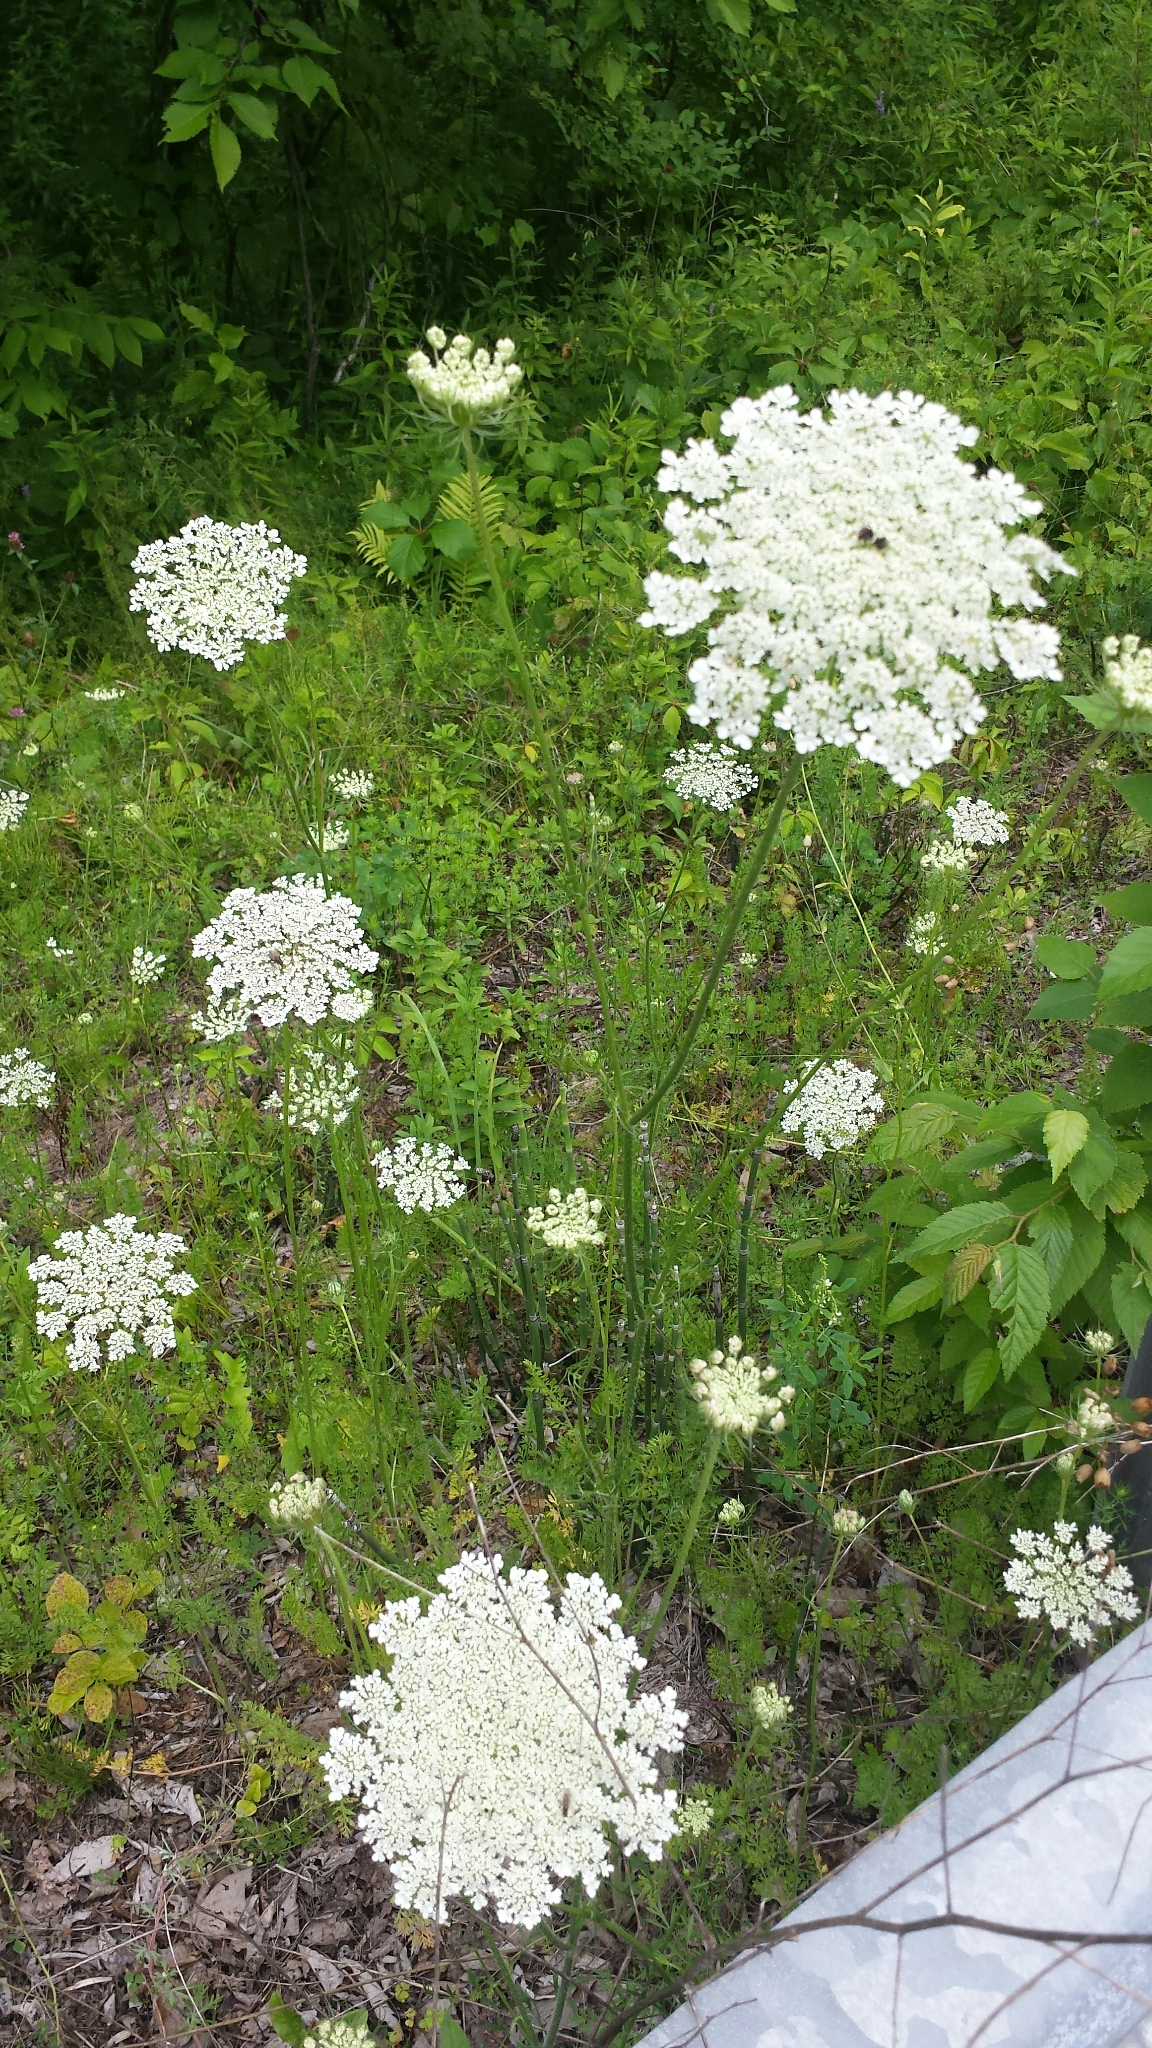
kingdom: Plantae
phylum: Tracheophyta
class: Magnoliopsida
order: Apiales
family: Apiaceae
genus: Daucus
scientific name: Daucus carota
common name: Wild carrot
